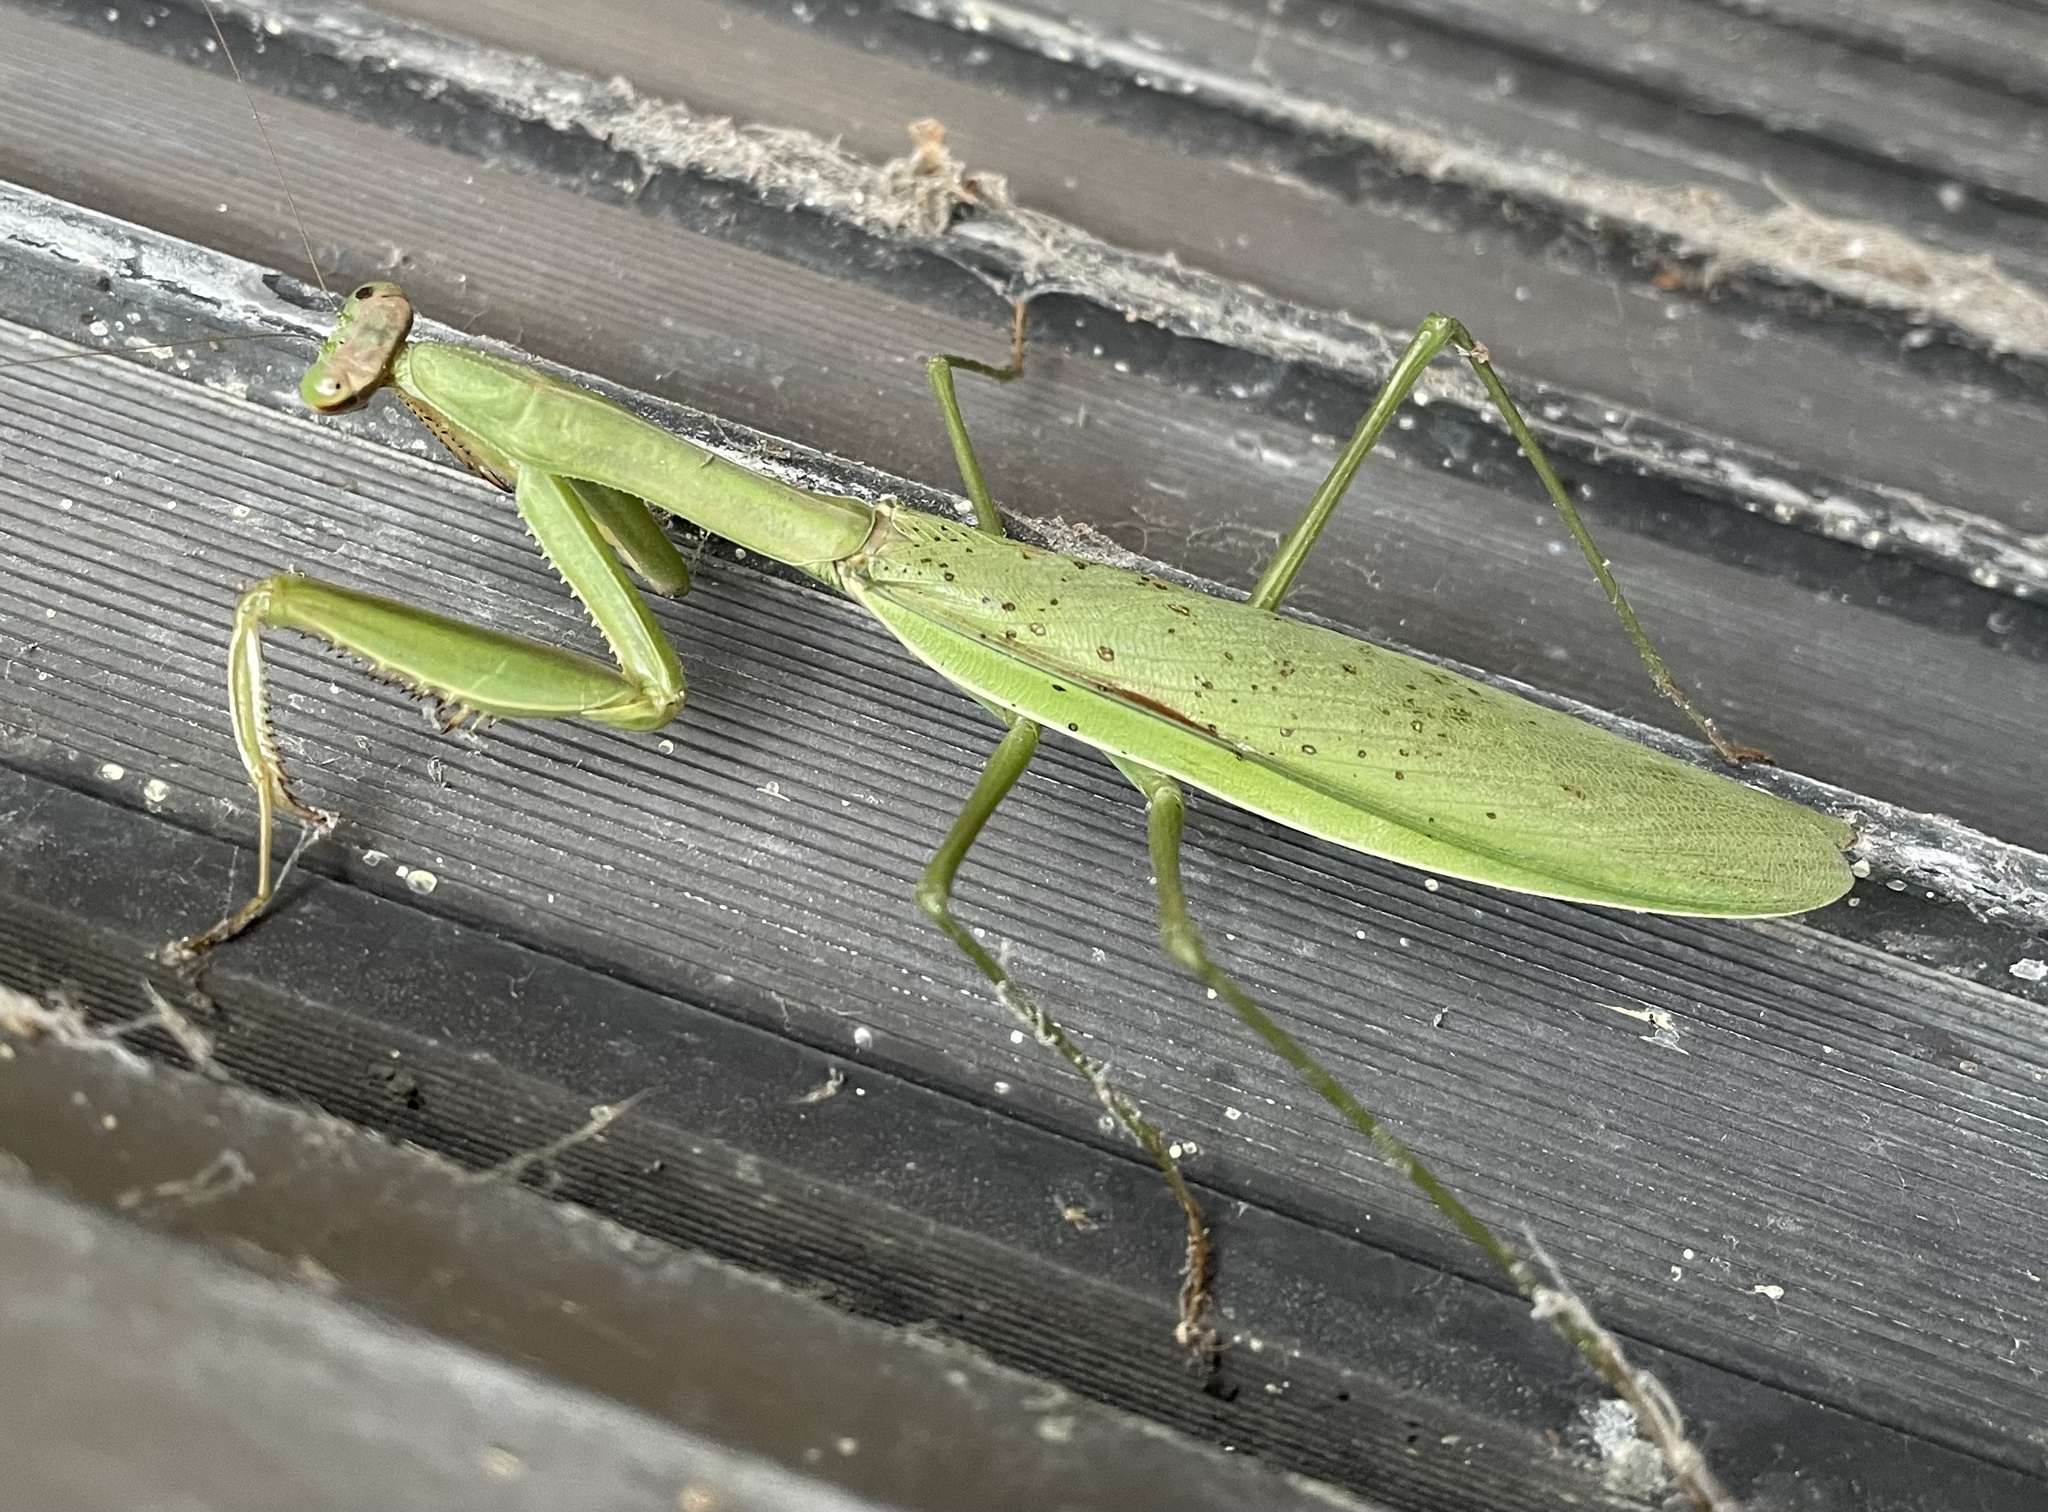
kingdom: Animalia
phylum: Arthropoda
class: Insecta
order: Mantodea
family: Mantidae
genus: Tenodera
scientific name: Tenodera sinensis
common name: Chinese mantis
